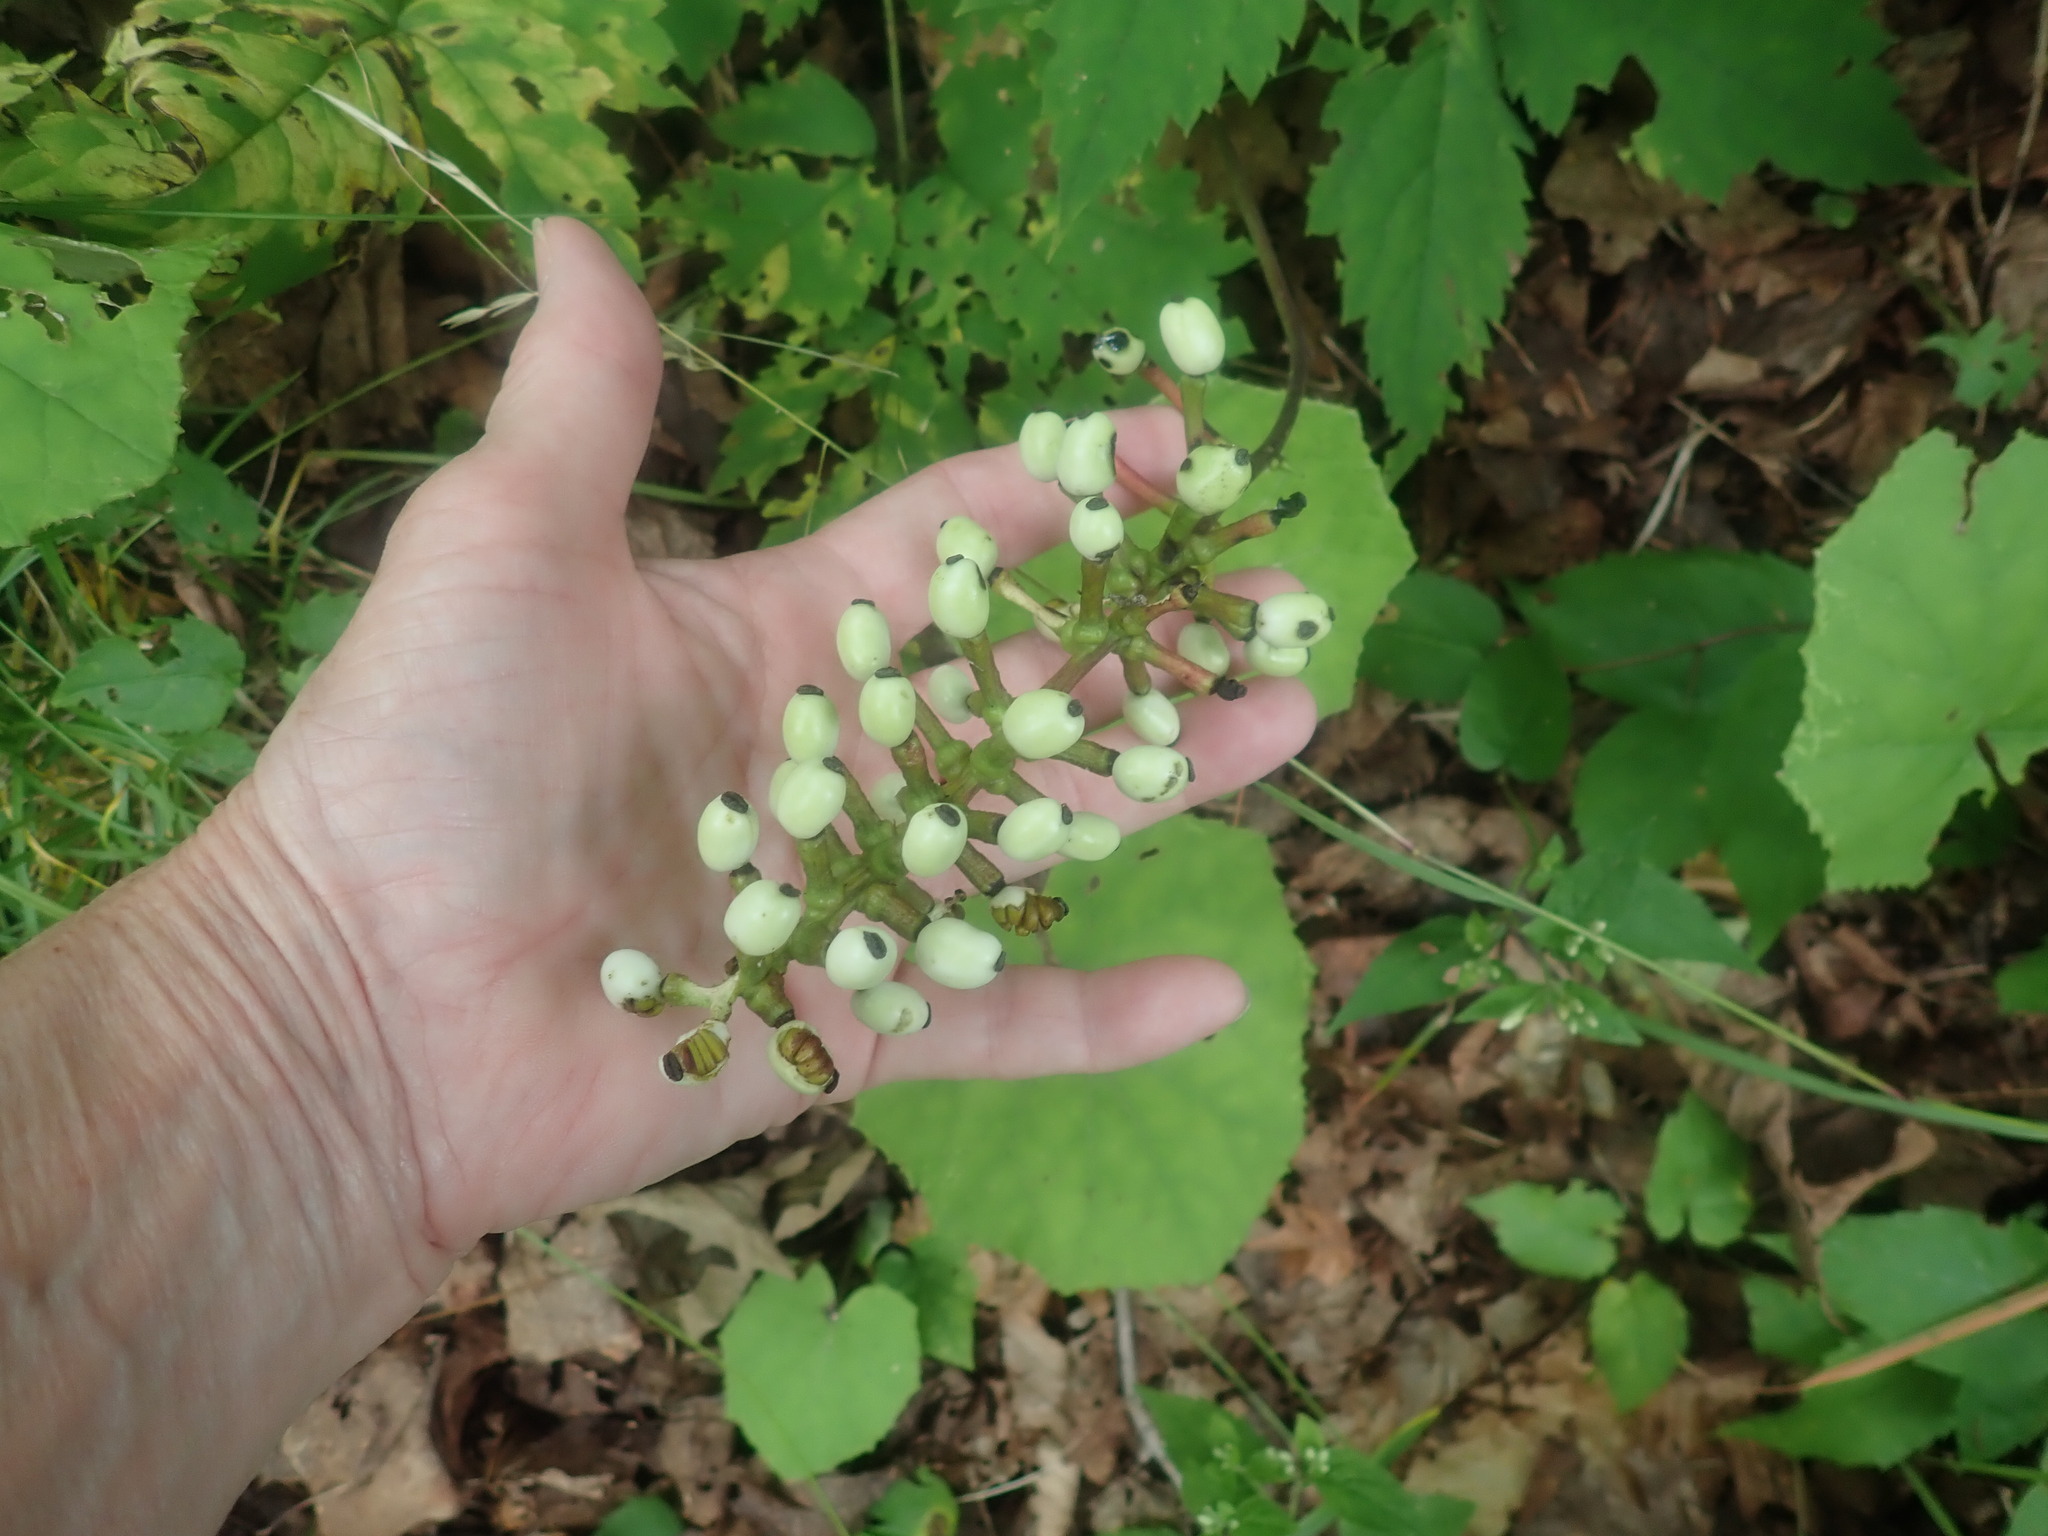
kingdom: Plantae
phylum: Tracheophyta
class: Magnoliopsida
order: Ranunculales
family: Ranunculaceae
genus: Actaea
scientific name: Actaea pachypoda
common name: Doll's-eyes
